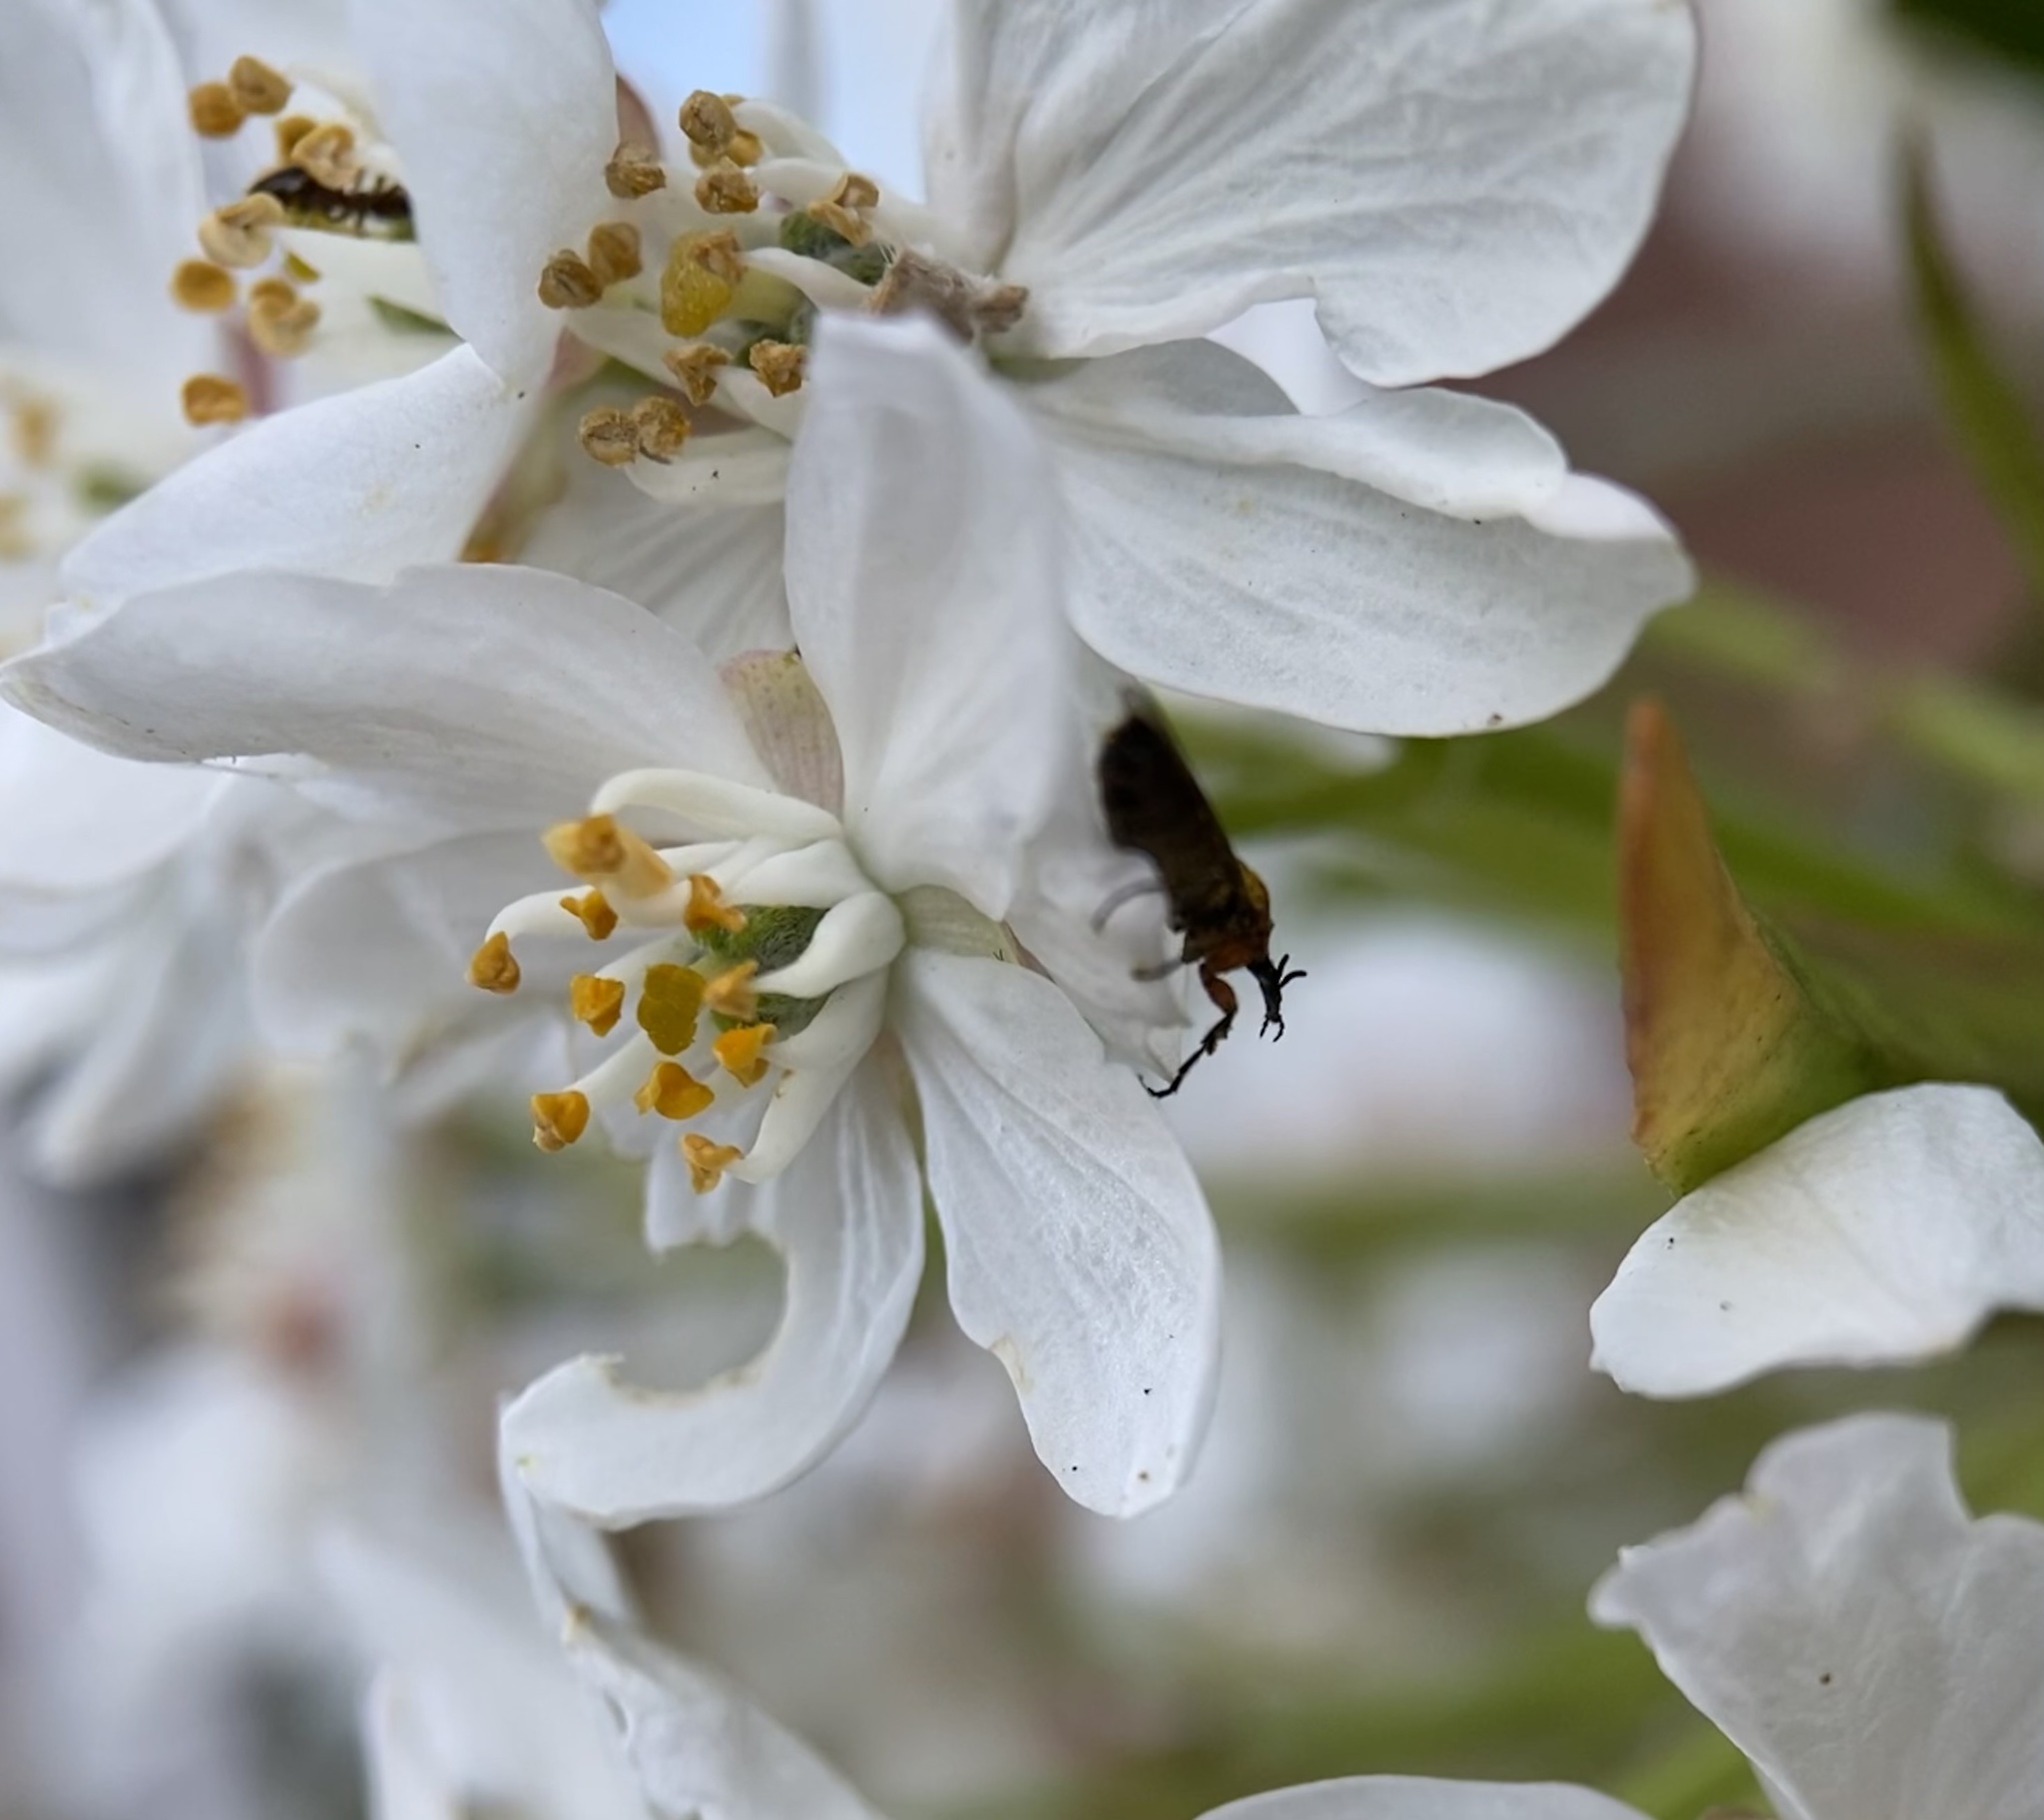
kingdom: Animalia
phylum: Arthropoda
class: Insecta
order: Diptera
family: Bibionidae
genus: Dilophus
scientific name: Dilophus strigilatus
